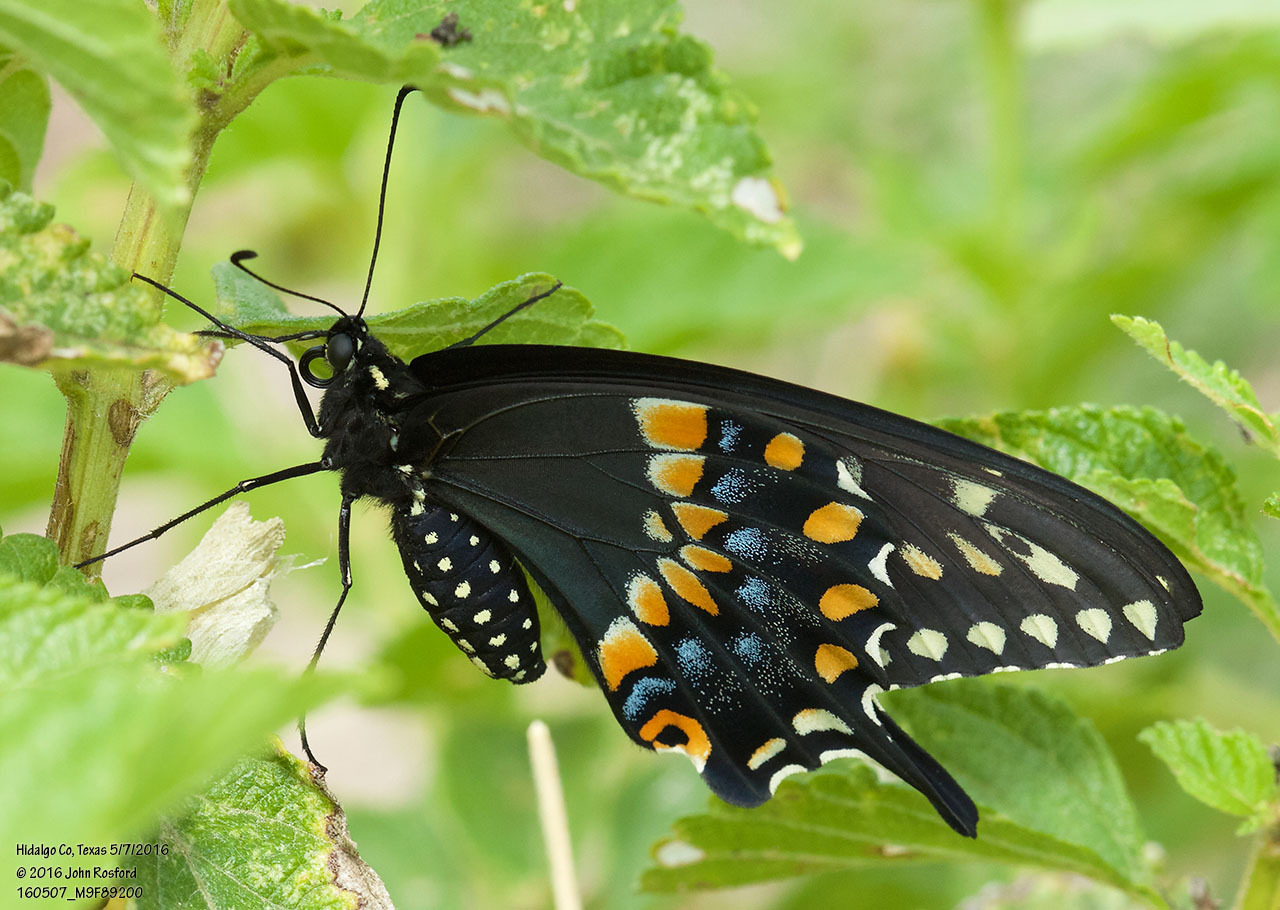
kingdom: Animalia
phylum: Arthropoda
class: Insecta
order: Lepidoptera
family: Papilionidae
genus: Papilio
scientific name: Papilio polyxenes
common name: Black swallowtail
